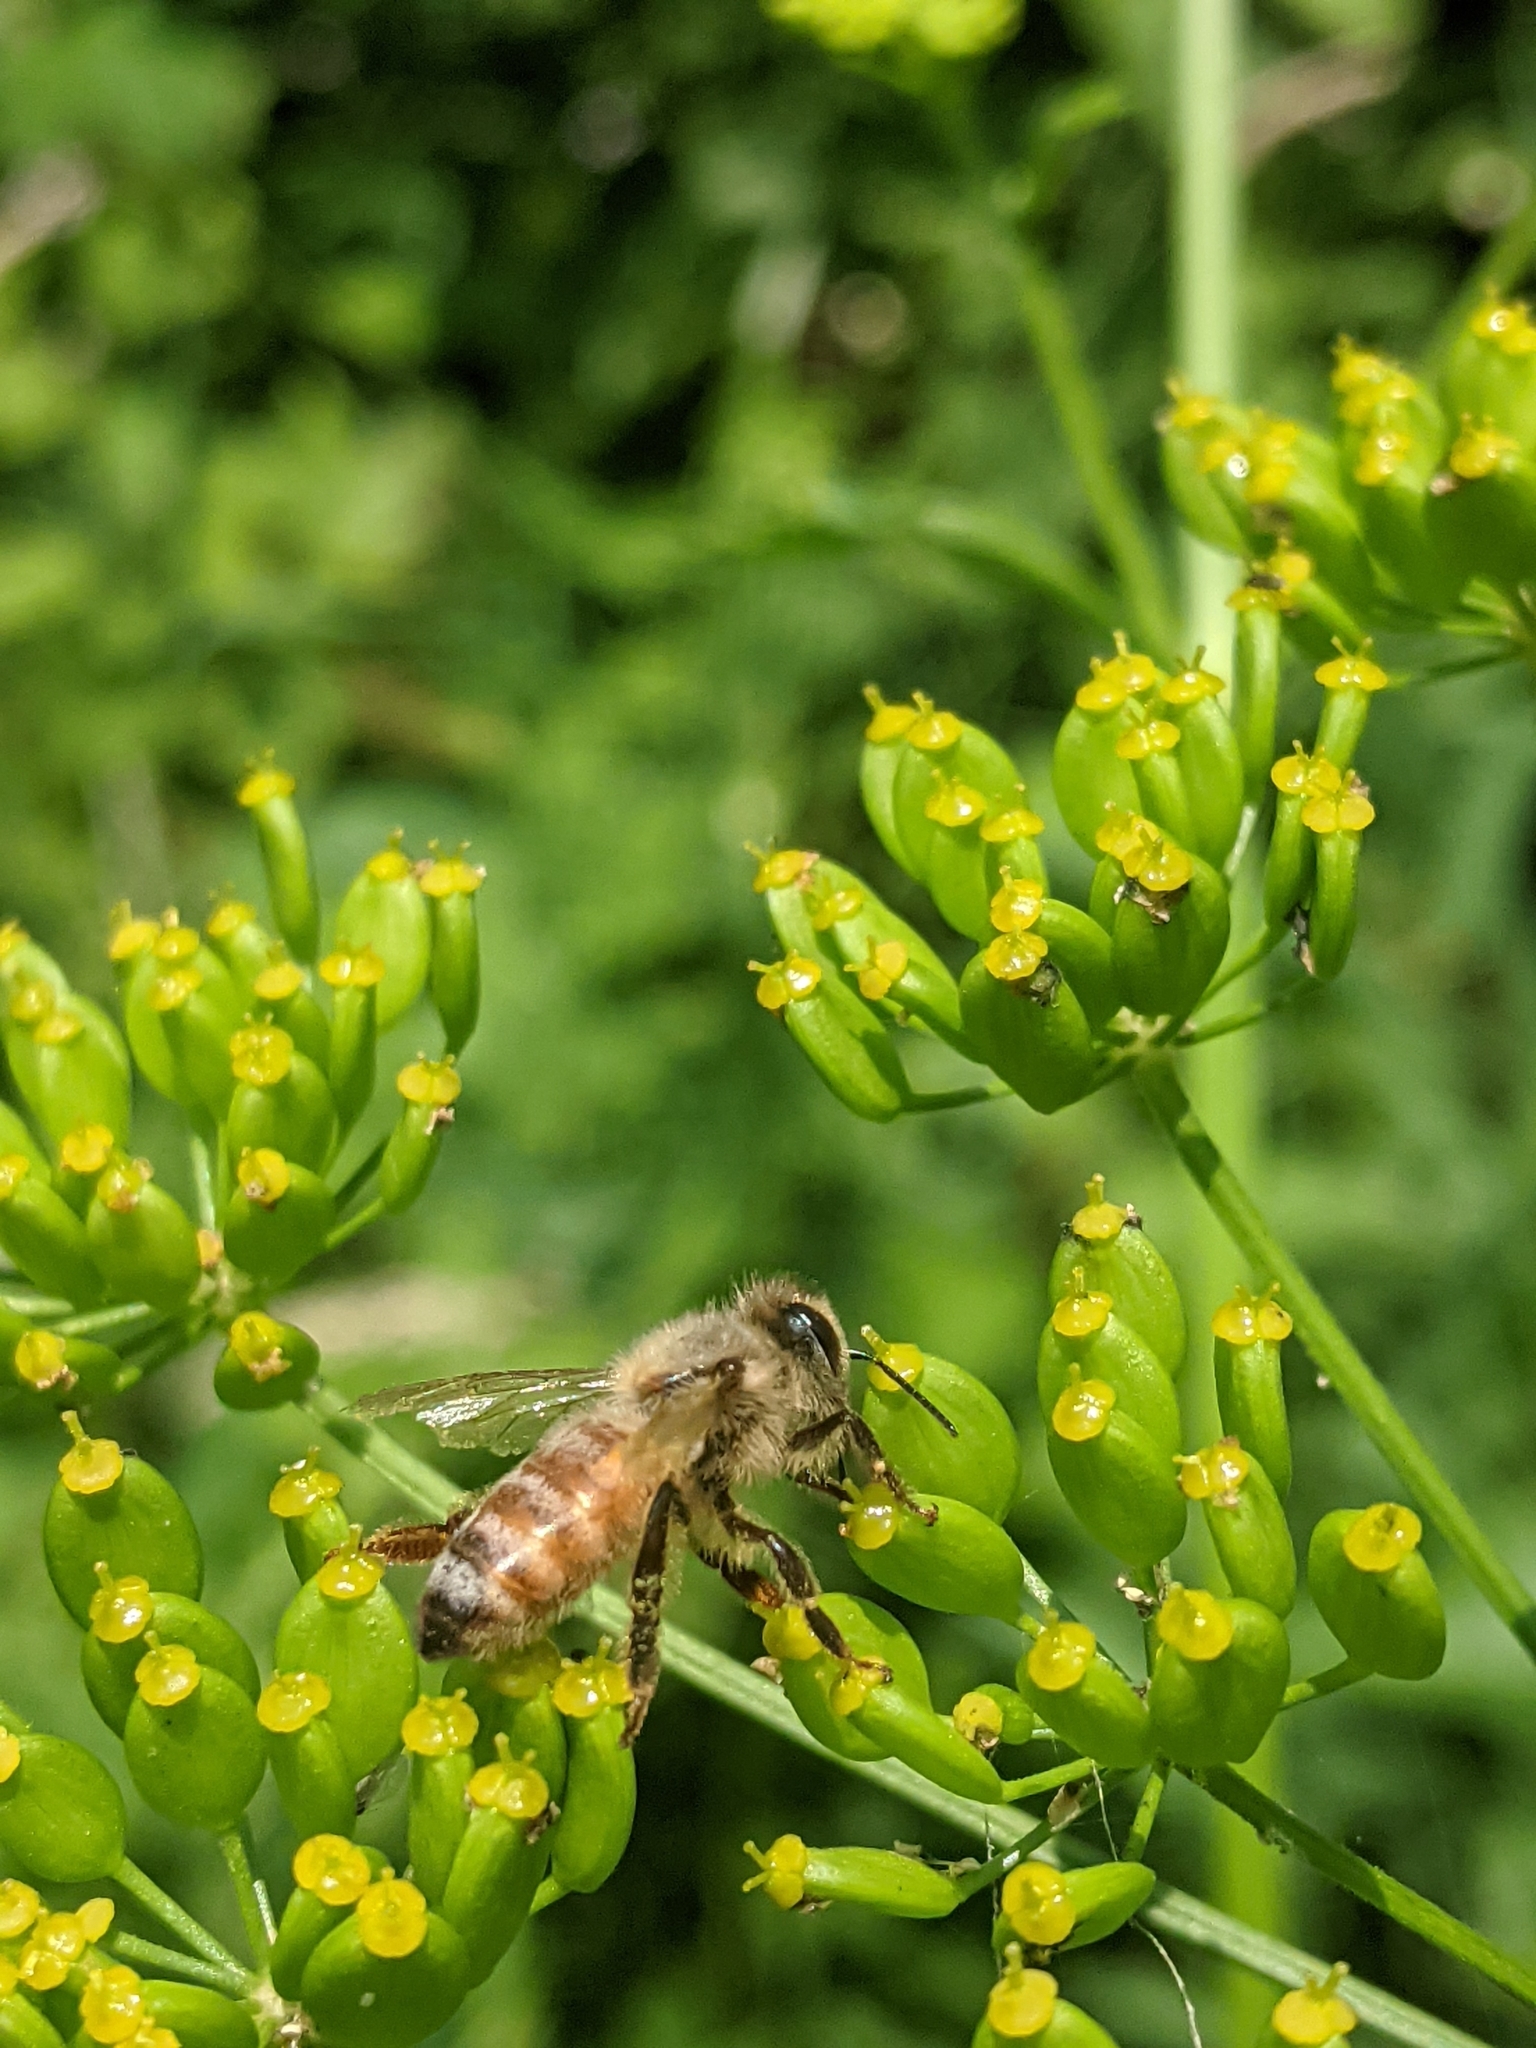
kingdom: Animalia
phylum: Arthropoda
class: Insecta
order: Hymenoptera
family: Apidae
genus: Apis
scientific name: Apis mellifera
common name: Honey bee
